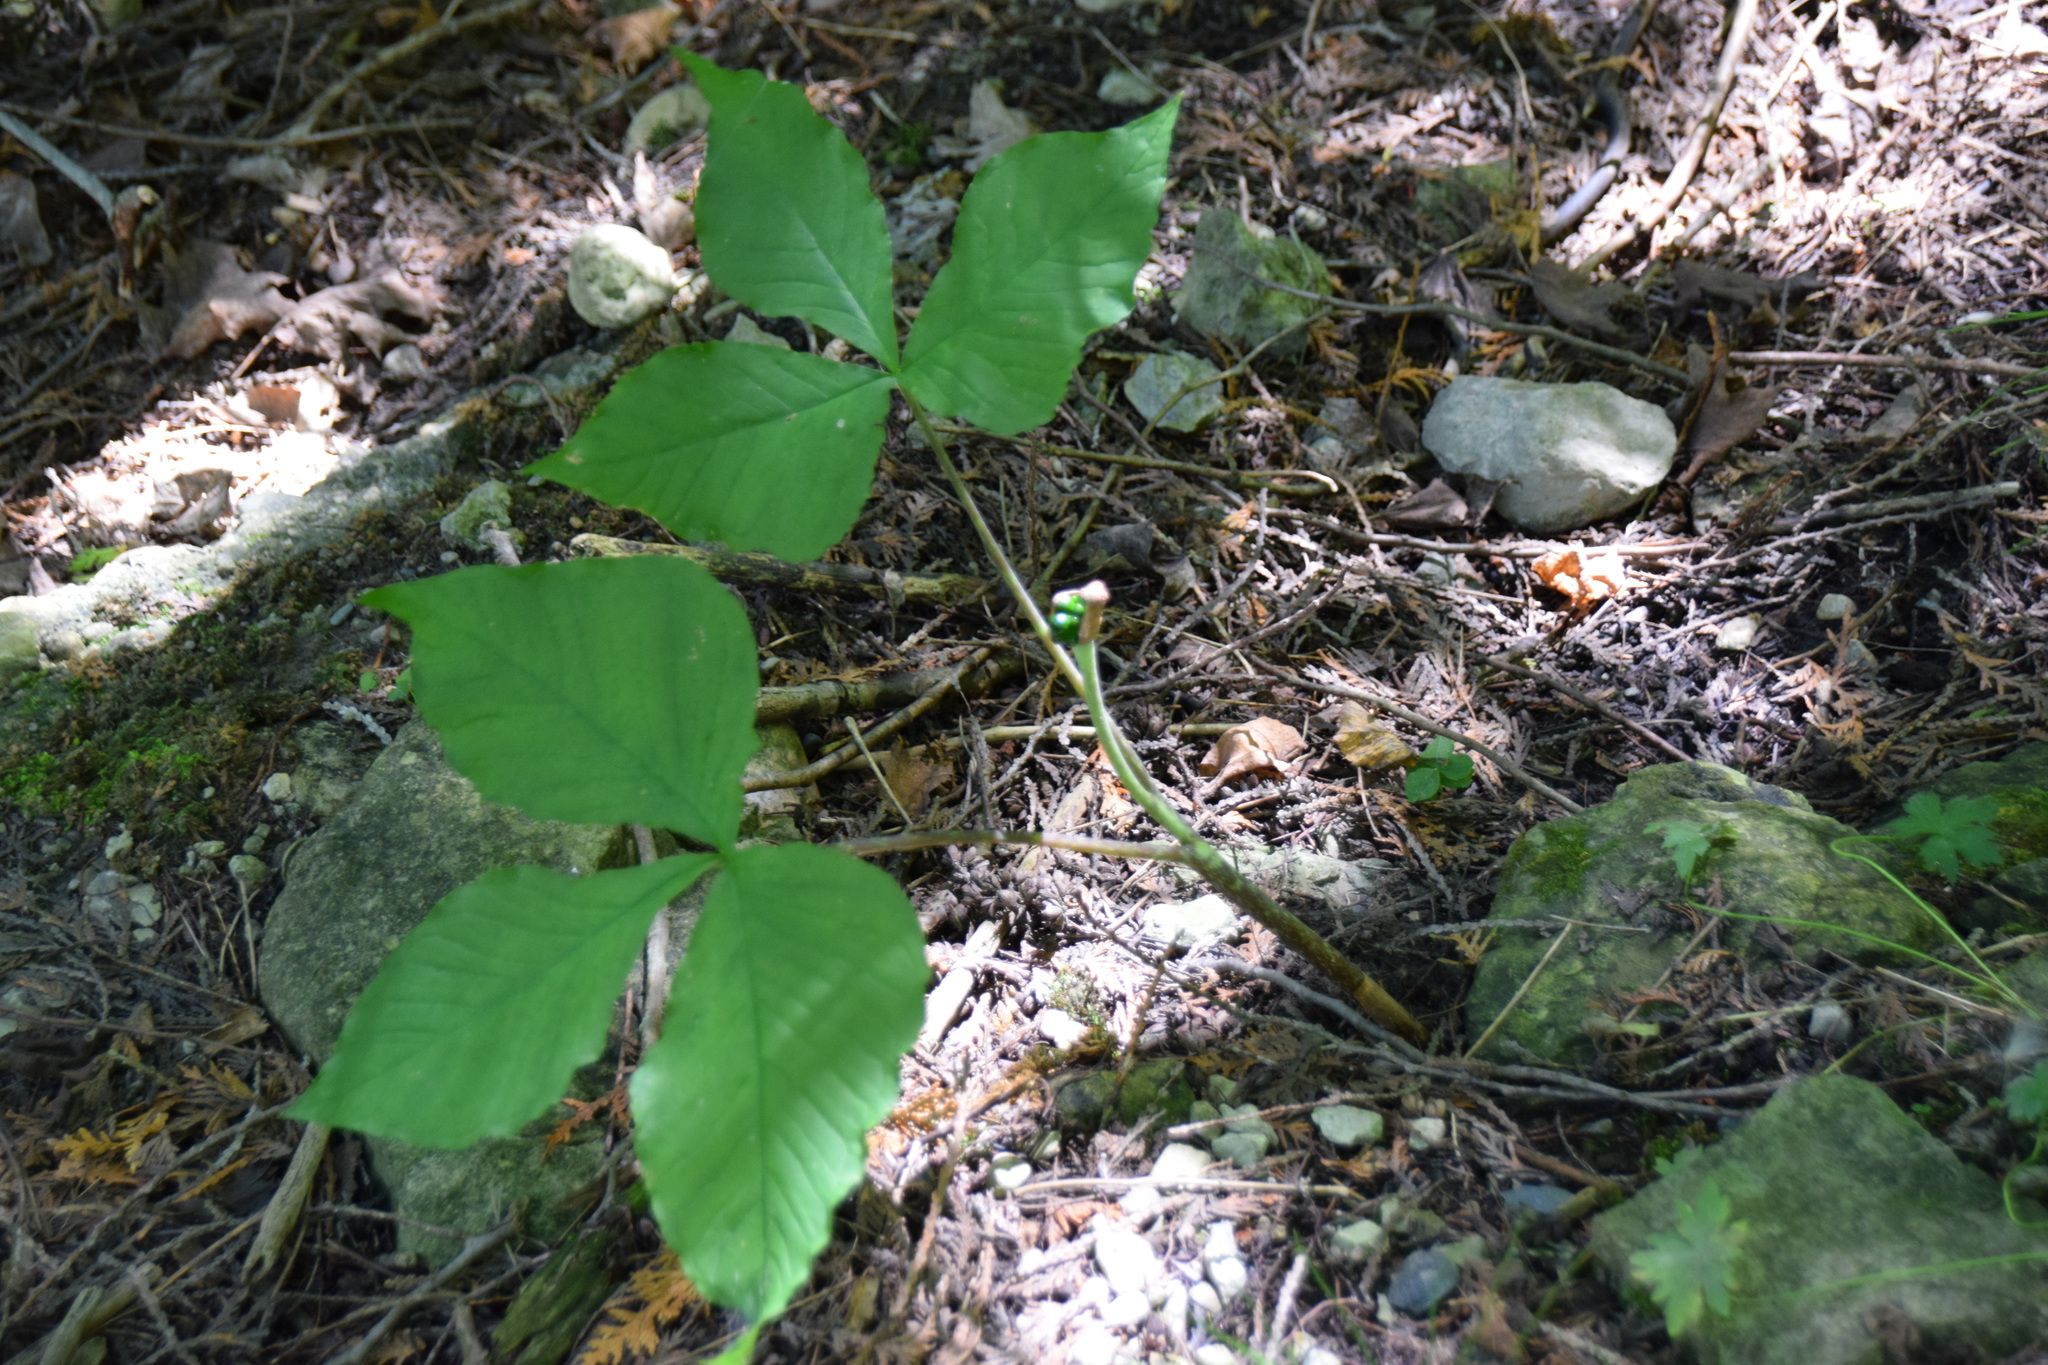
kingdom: Plantae
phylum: Tracheophyta
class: Liliopsida
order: Alismatales
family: Araceae
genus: Arisaema
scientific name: Arisaema triphyllum
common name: Jack-in-the-pulpit
